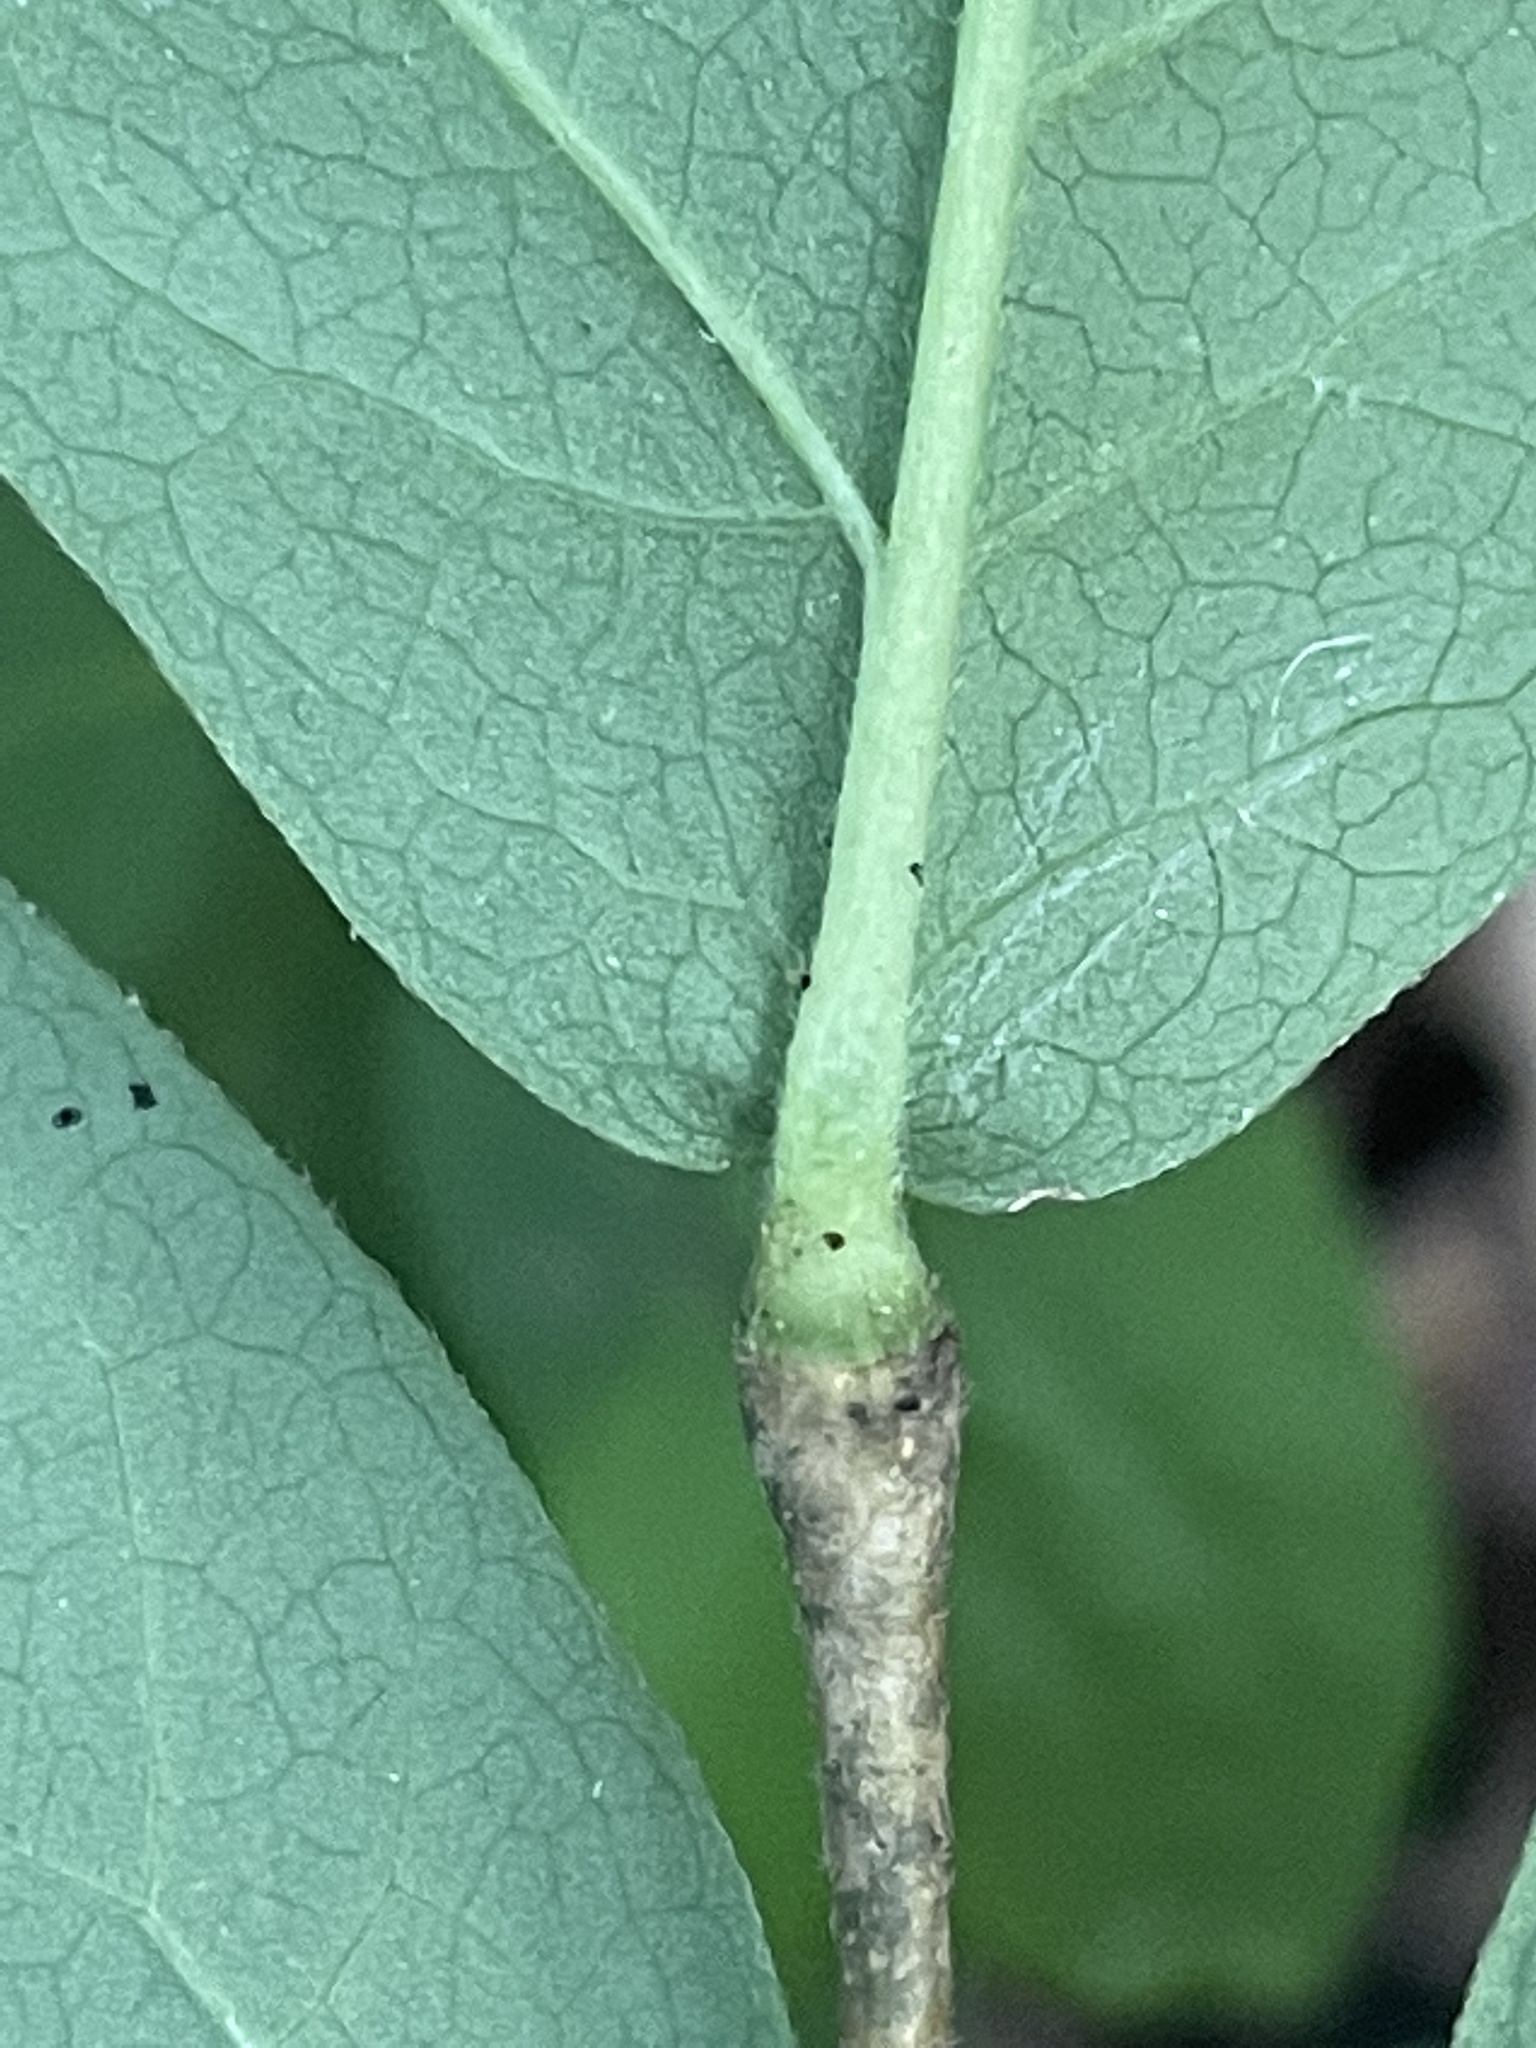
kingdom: Plantae
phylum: Tracheophyta
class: Magnoliopsida
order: Malvales
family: Thymelaeaceae
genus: Dirca
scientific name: Dirca palustris
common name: Leatherwood
